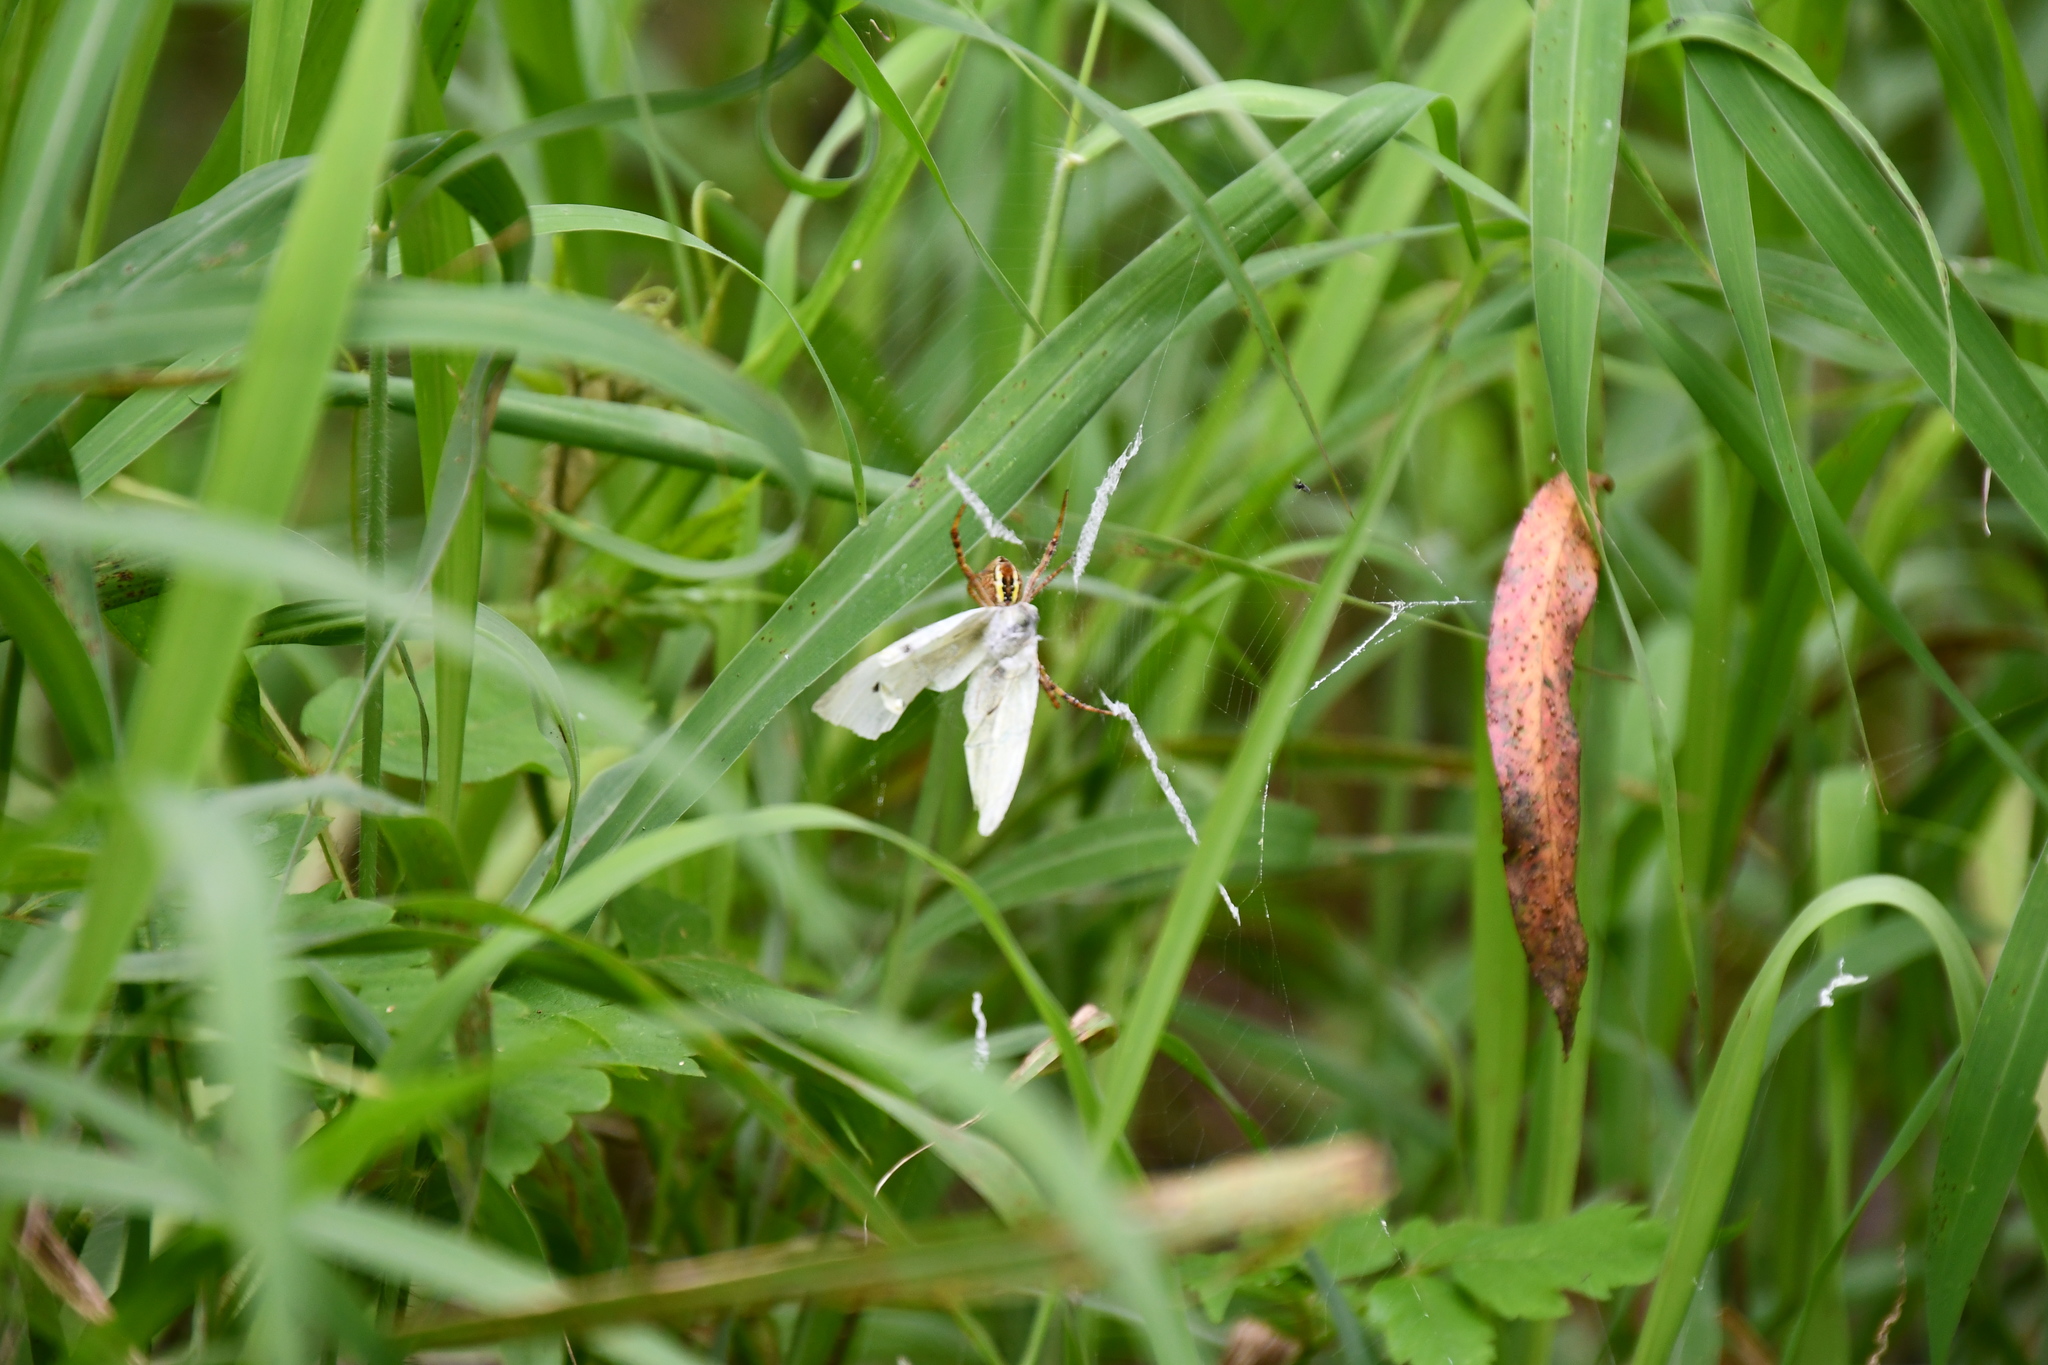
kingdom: Animalia
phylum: Arthropoda
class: Insecta
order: Lepidoptera
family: Pieridae
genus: Pieris
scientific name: Pieris rapae
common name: Small white
